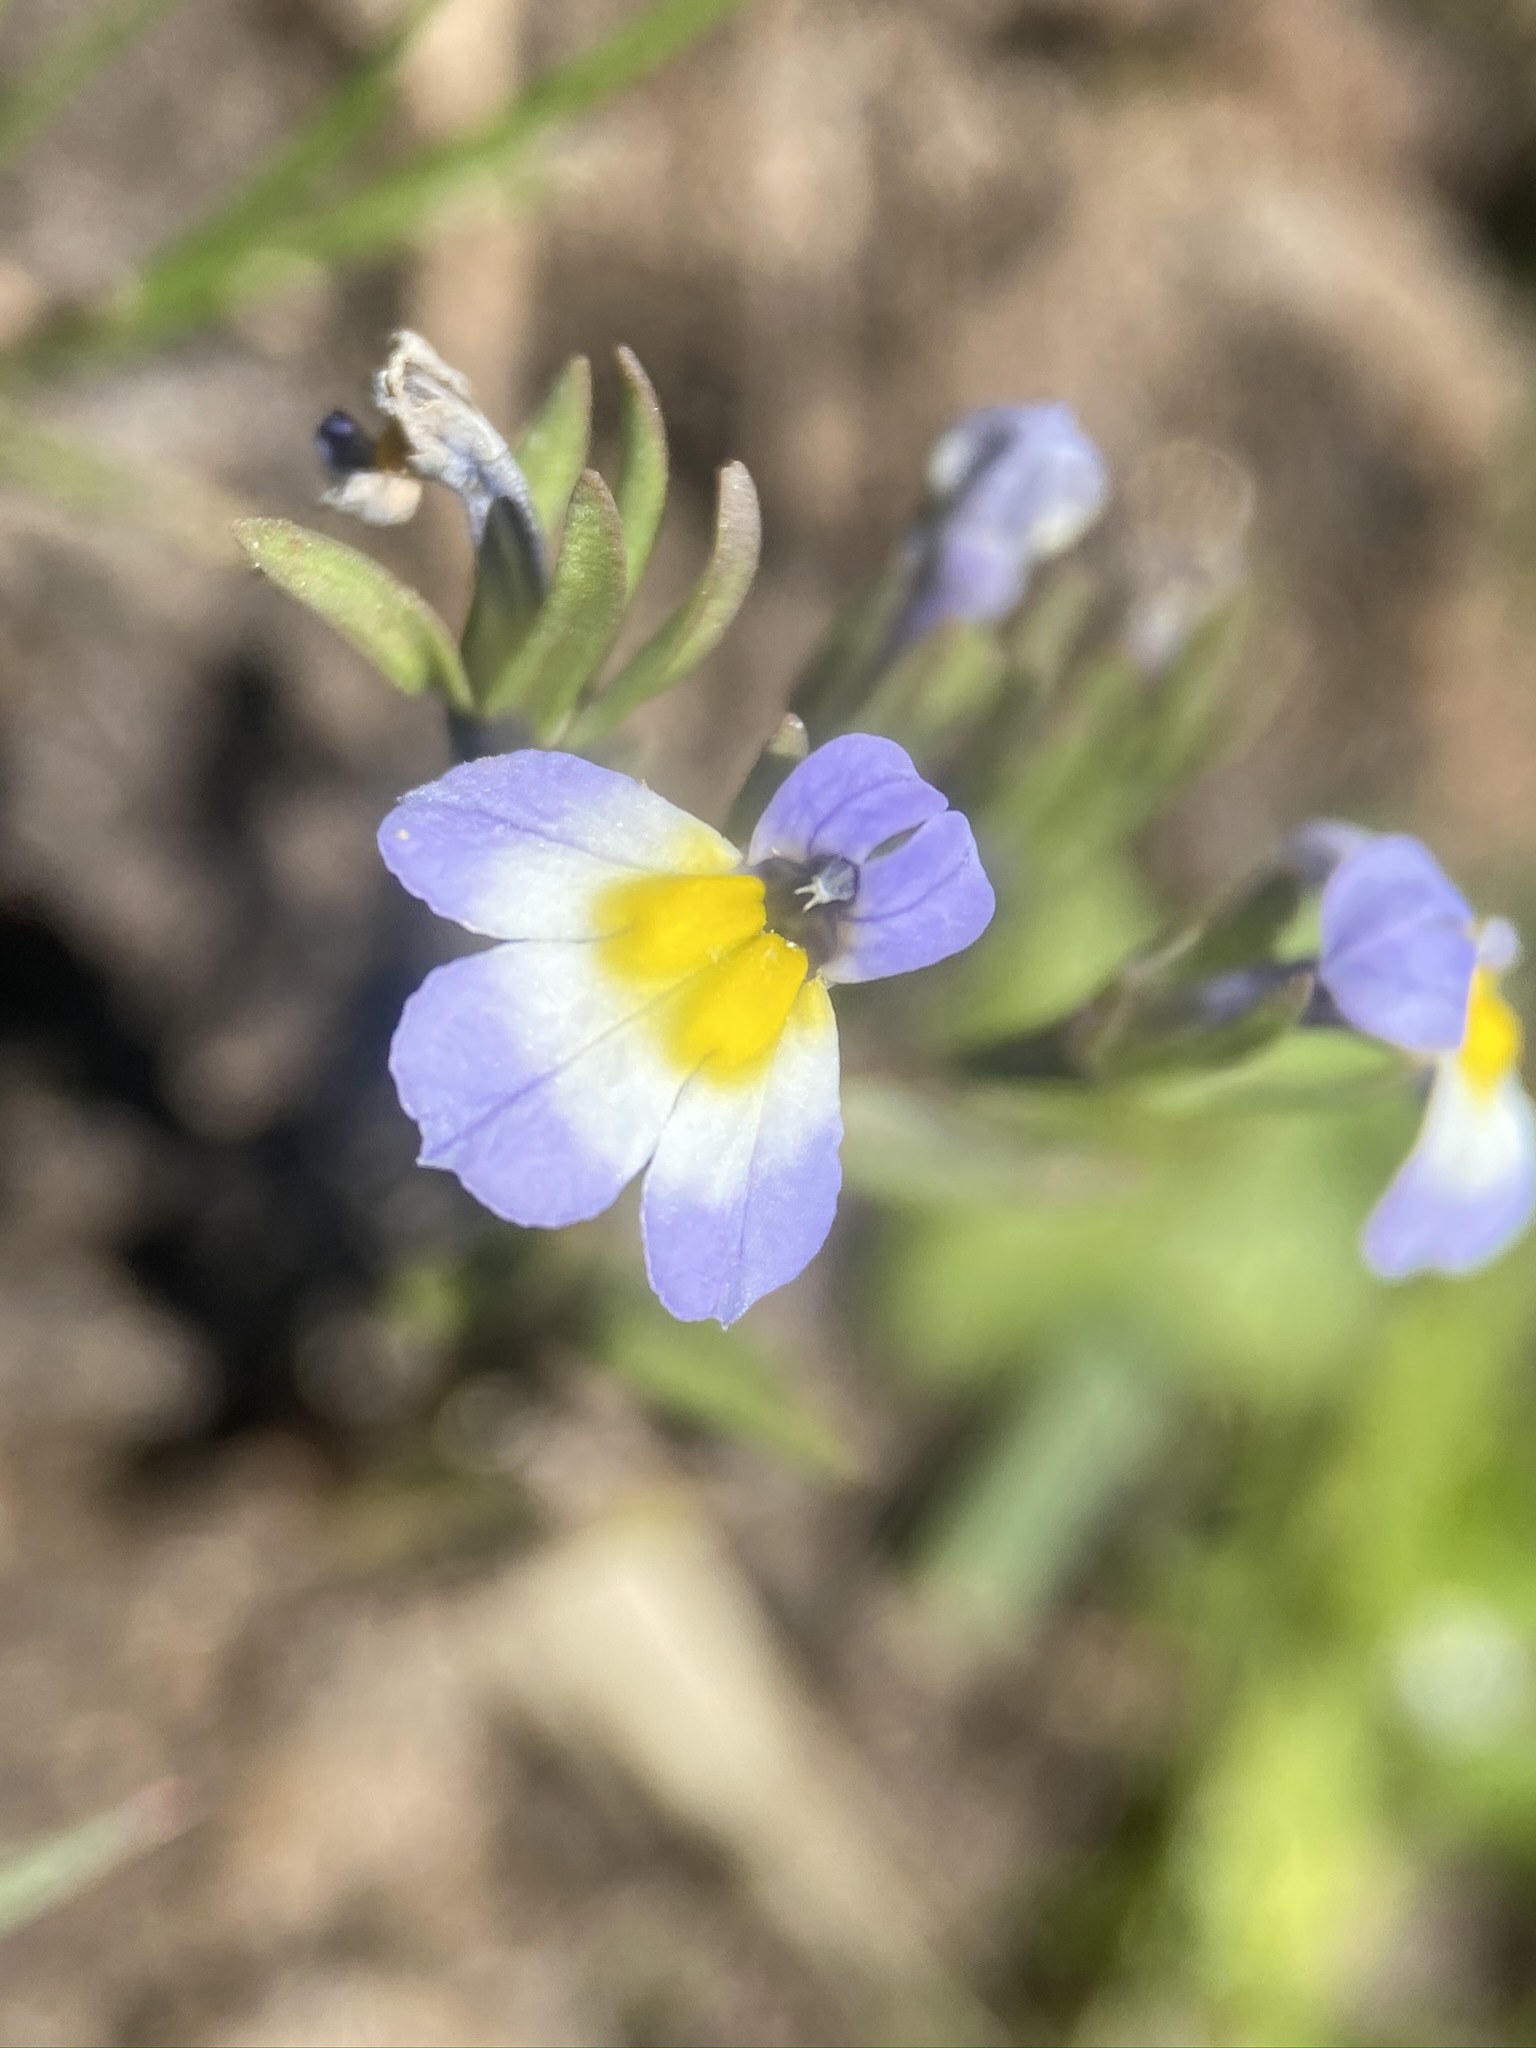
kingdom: Plantae
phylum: Tracheophyta
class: Magnoliopsida
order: Asterales
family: Campanulaceae
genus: Downingia
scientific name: Downingia cuspidata
